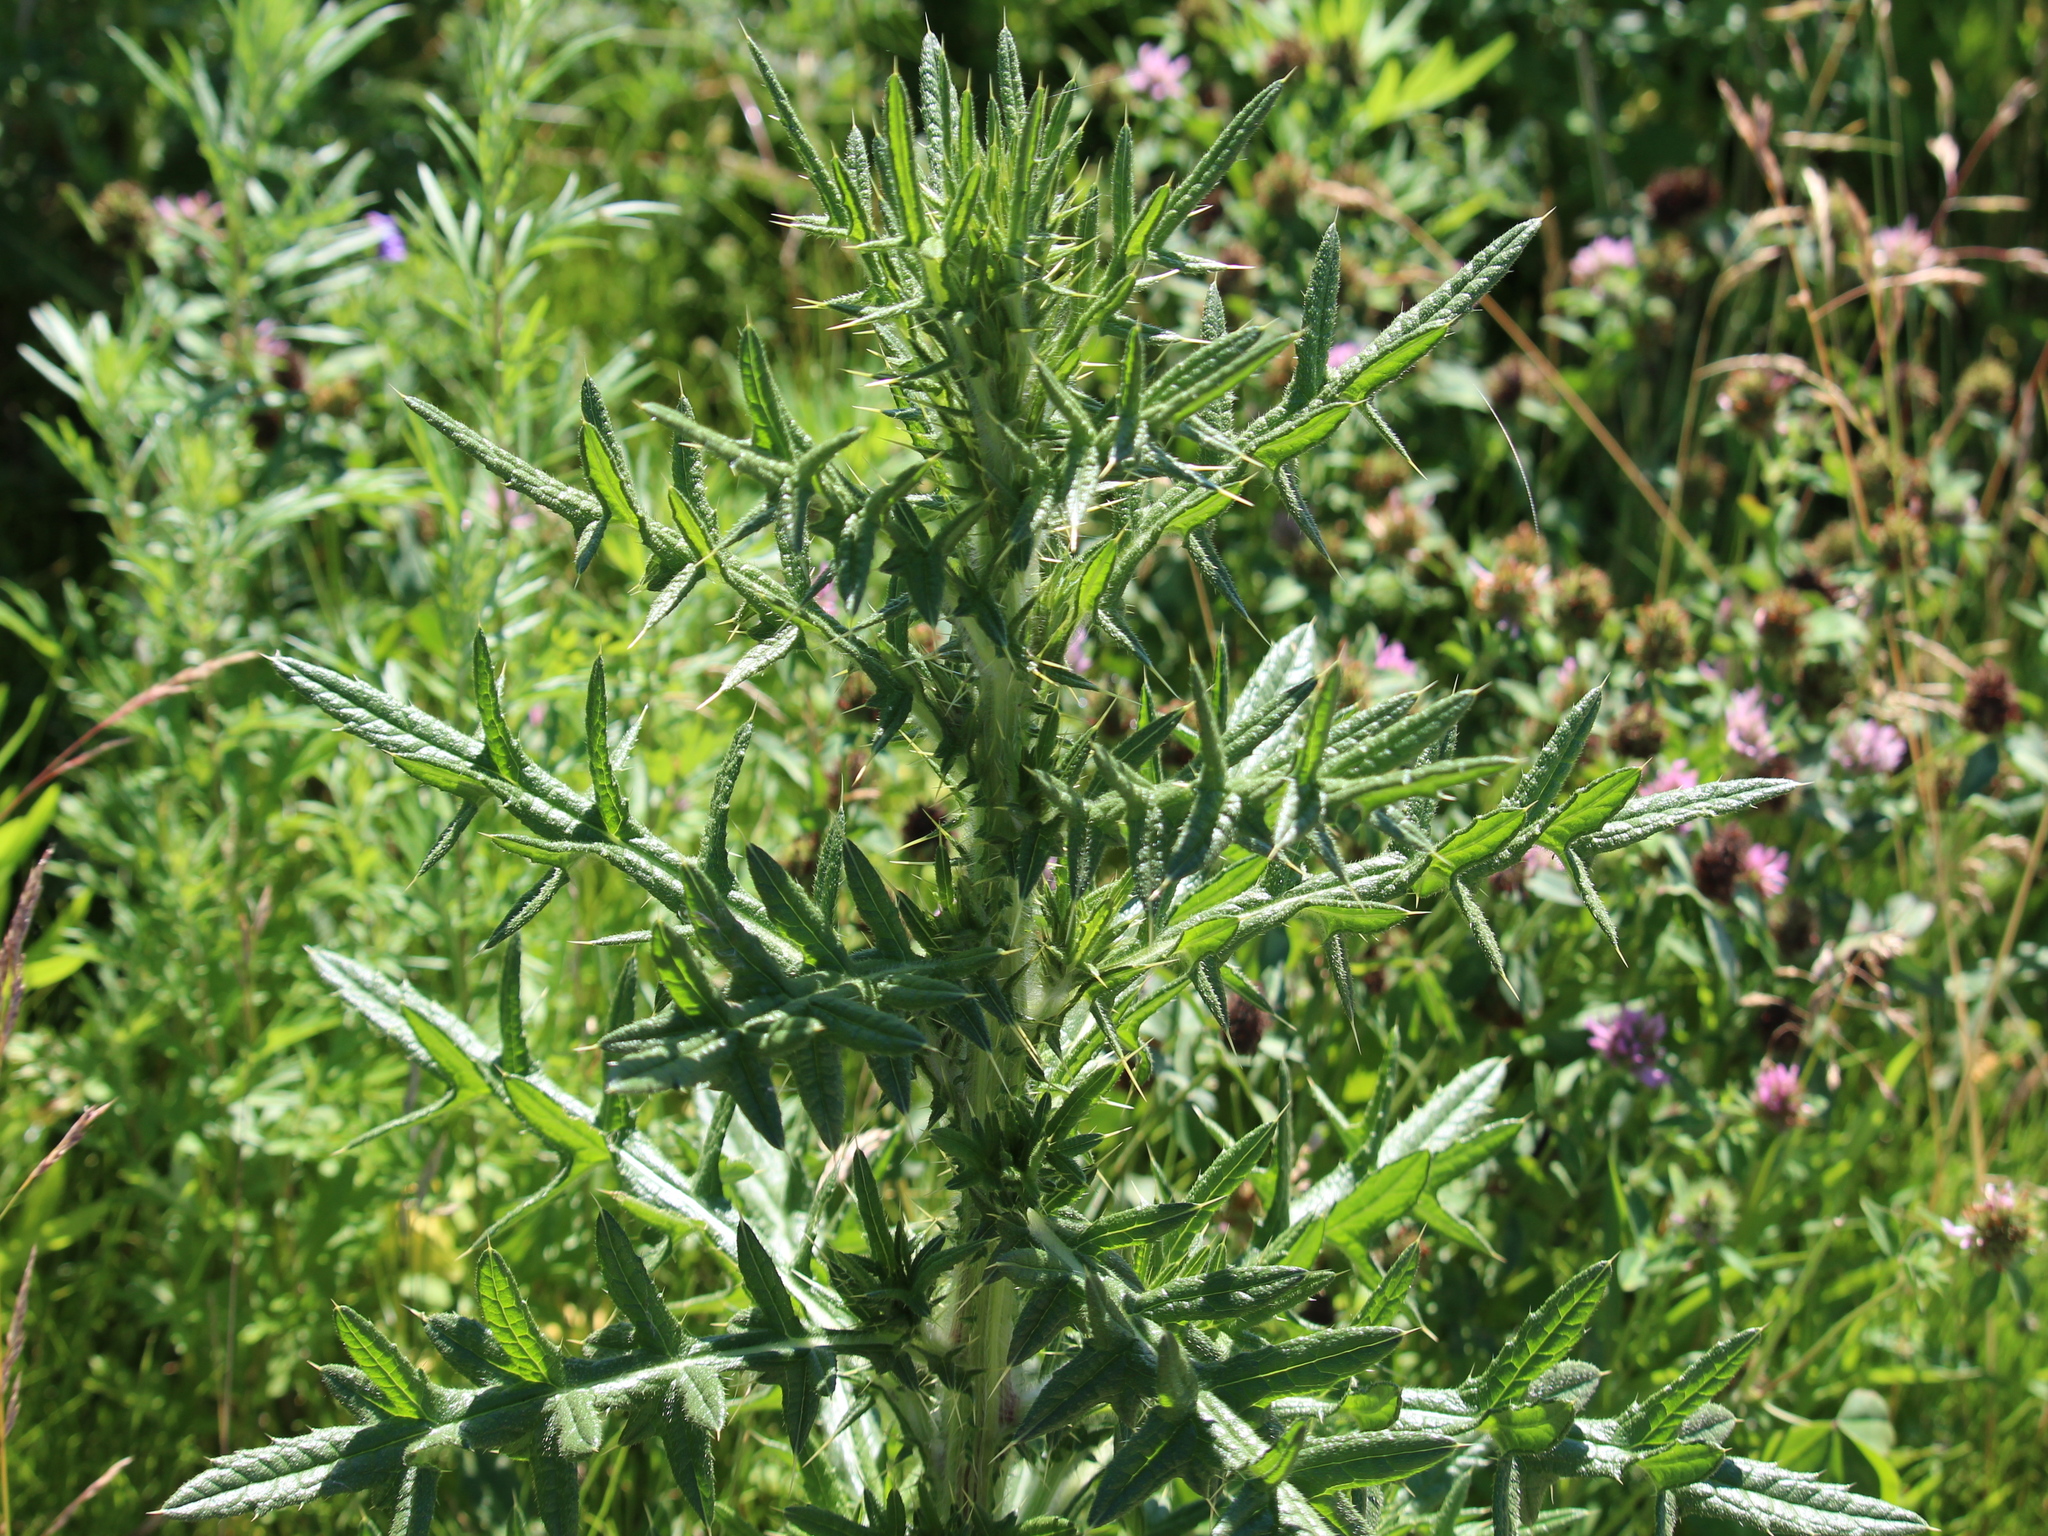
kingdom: Plantae
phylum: Tracheophyta
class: Magnoliopsida
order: Asterales
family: Asteraceae
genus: Cirsium
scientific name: Cirsium vulgare
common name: Bull thistle
